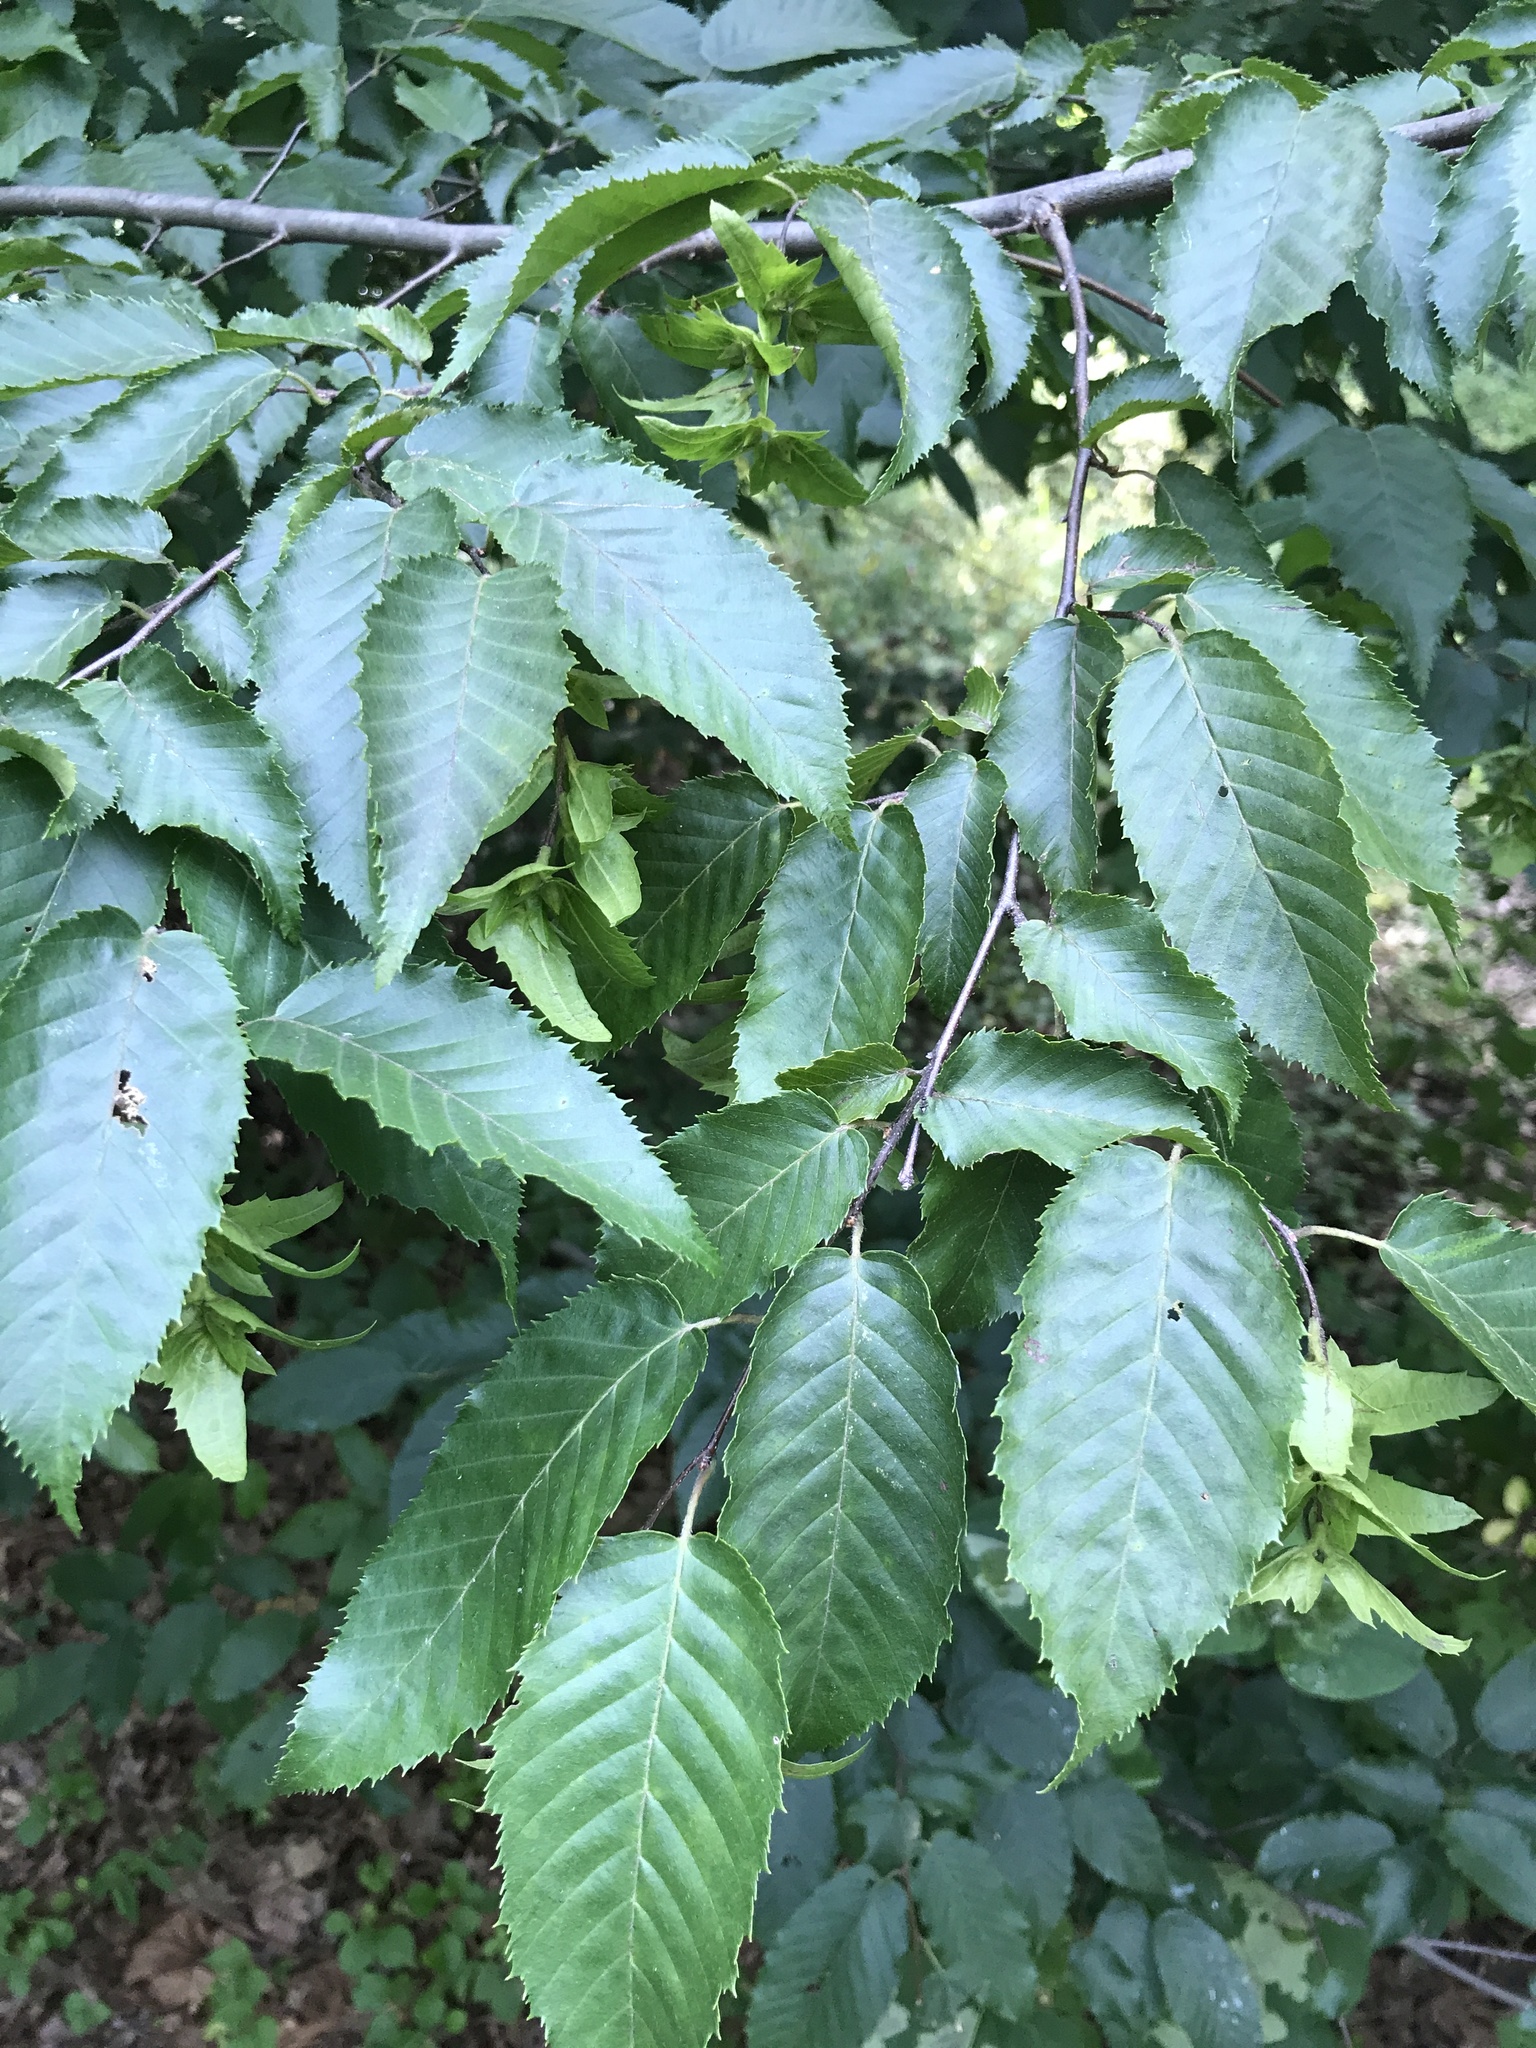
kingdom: Plantae
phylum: Tracheophyta
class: Magnoliopsida
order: Fagales
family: Betulaceae
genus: Carpinus
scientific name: Carpinus caroliniana
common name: American hornbeam
